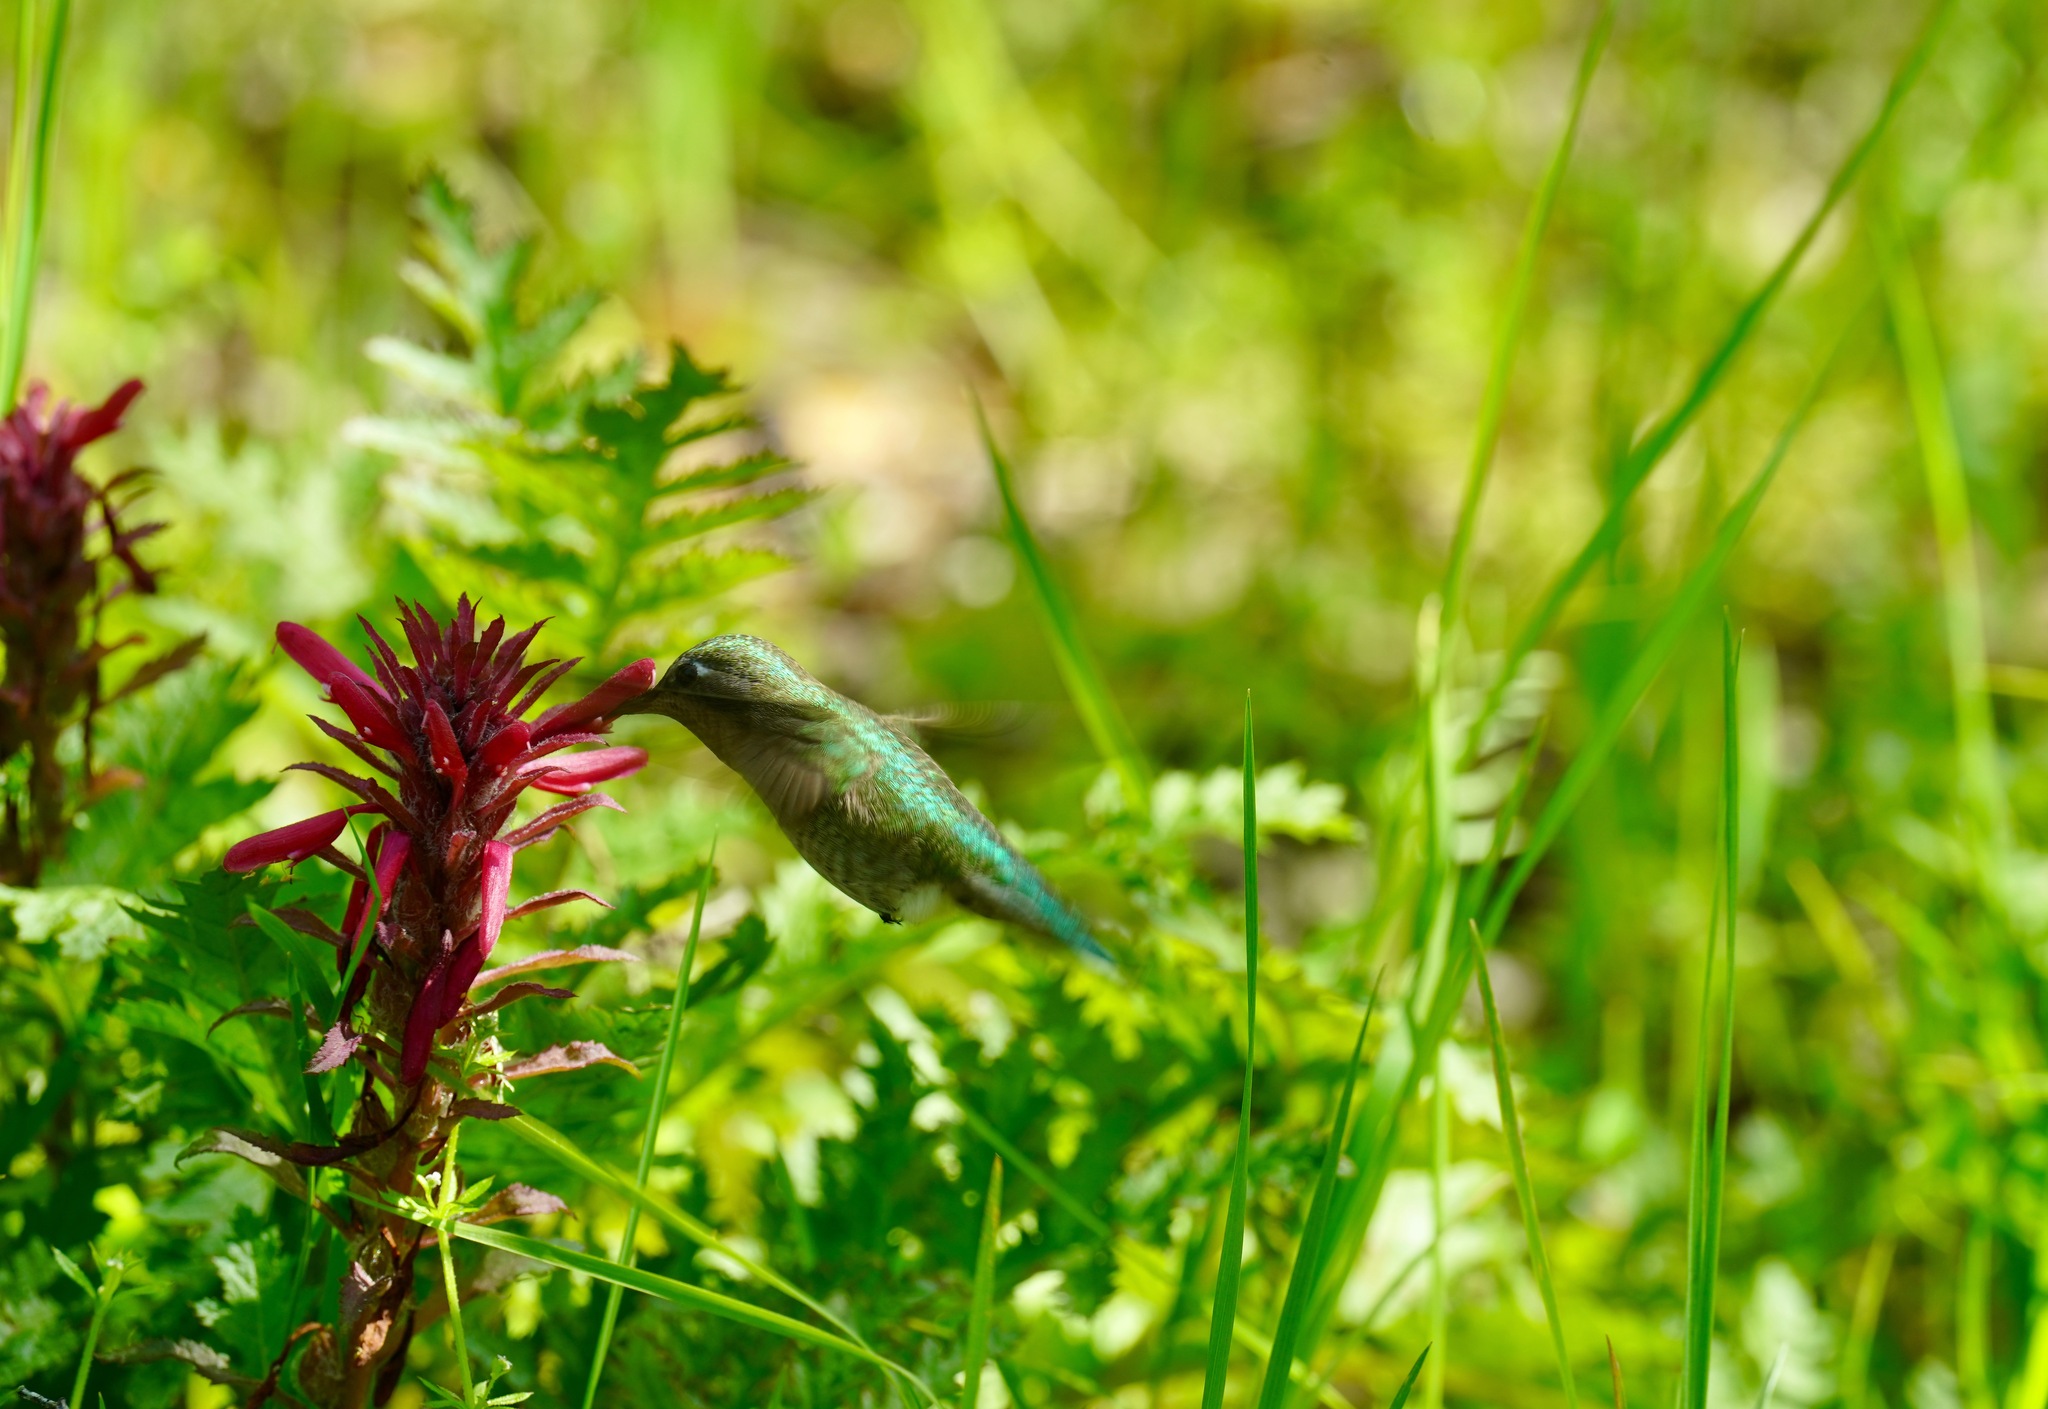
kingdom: Animalia
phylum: Chordata
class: Aves
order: Apodiformes
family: Trochilidae
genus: Calypte
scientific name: Calypte anna
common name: Anna's hummingbird
